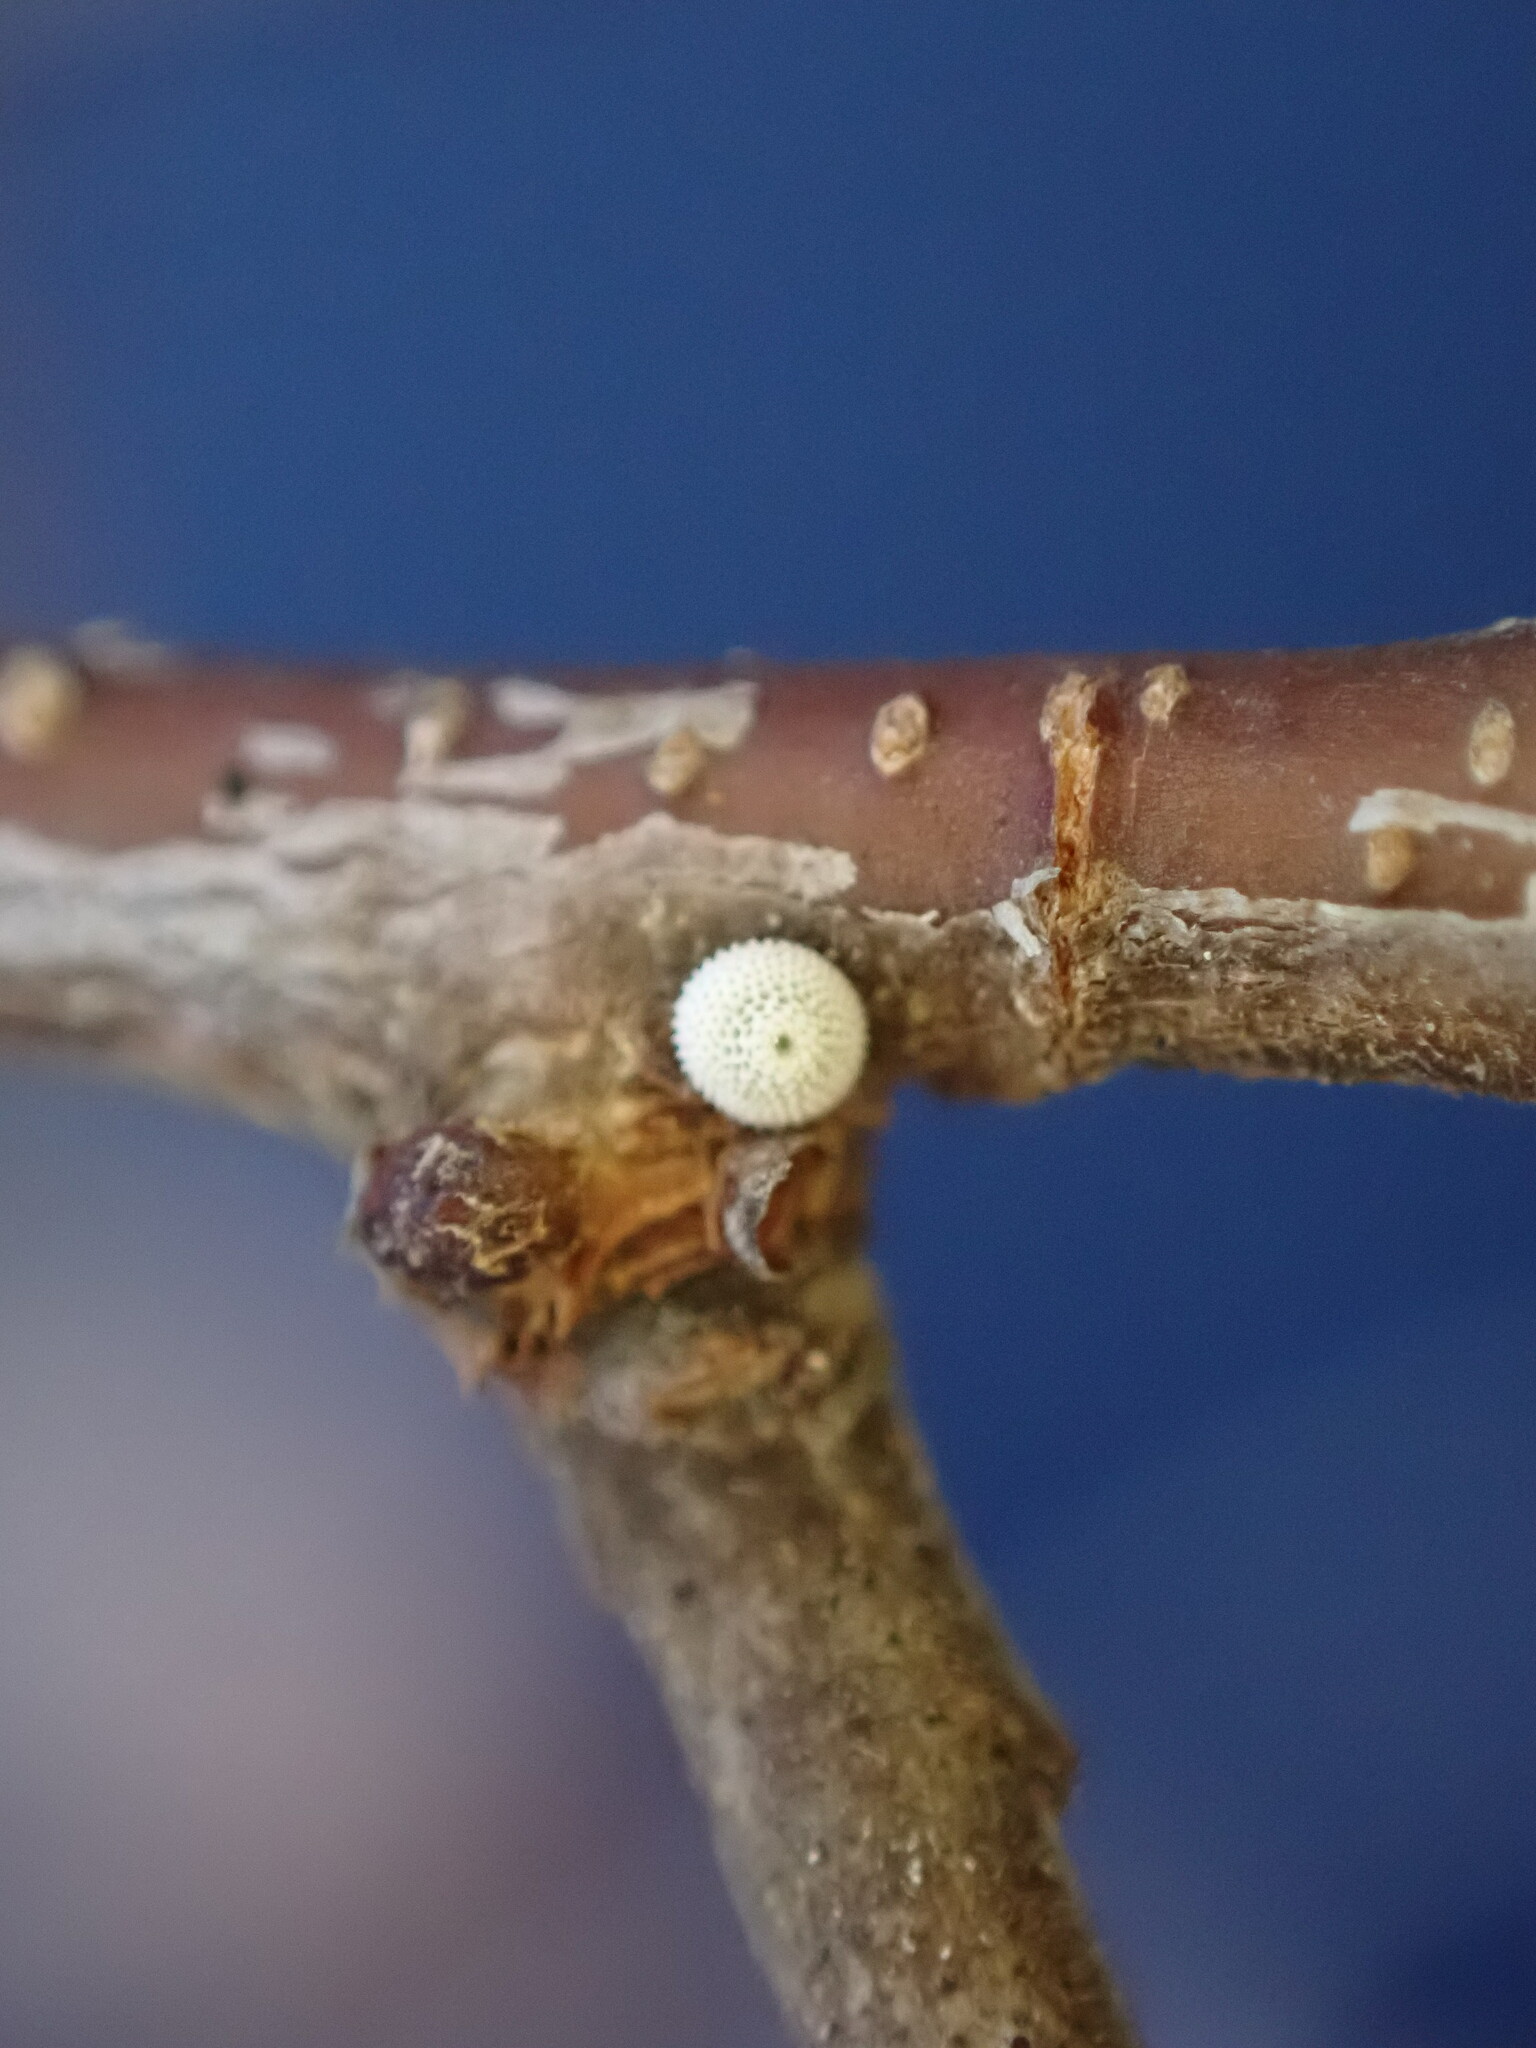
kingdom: Animalia
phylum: Arthropoda
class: Insecta
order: Lepidoptera
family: Lycaenidae
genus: Thecla
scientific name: Thecla betulae
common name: Brown hairstreak
